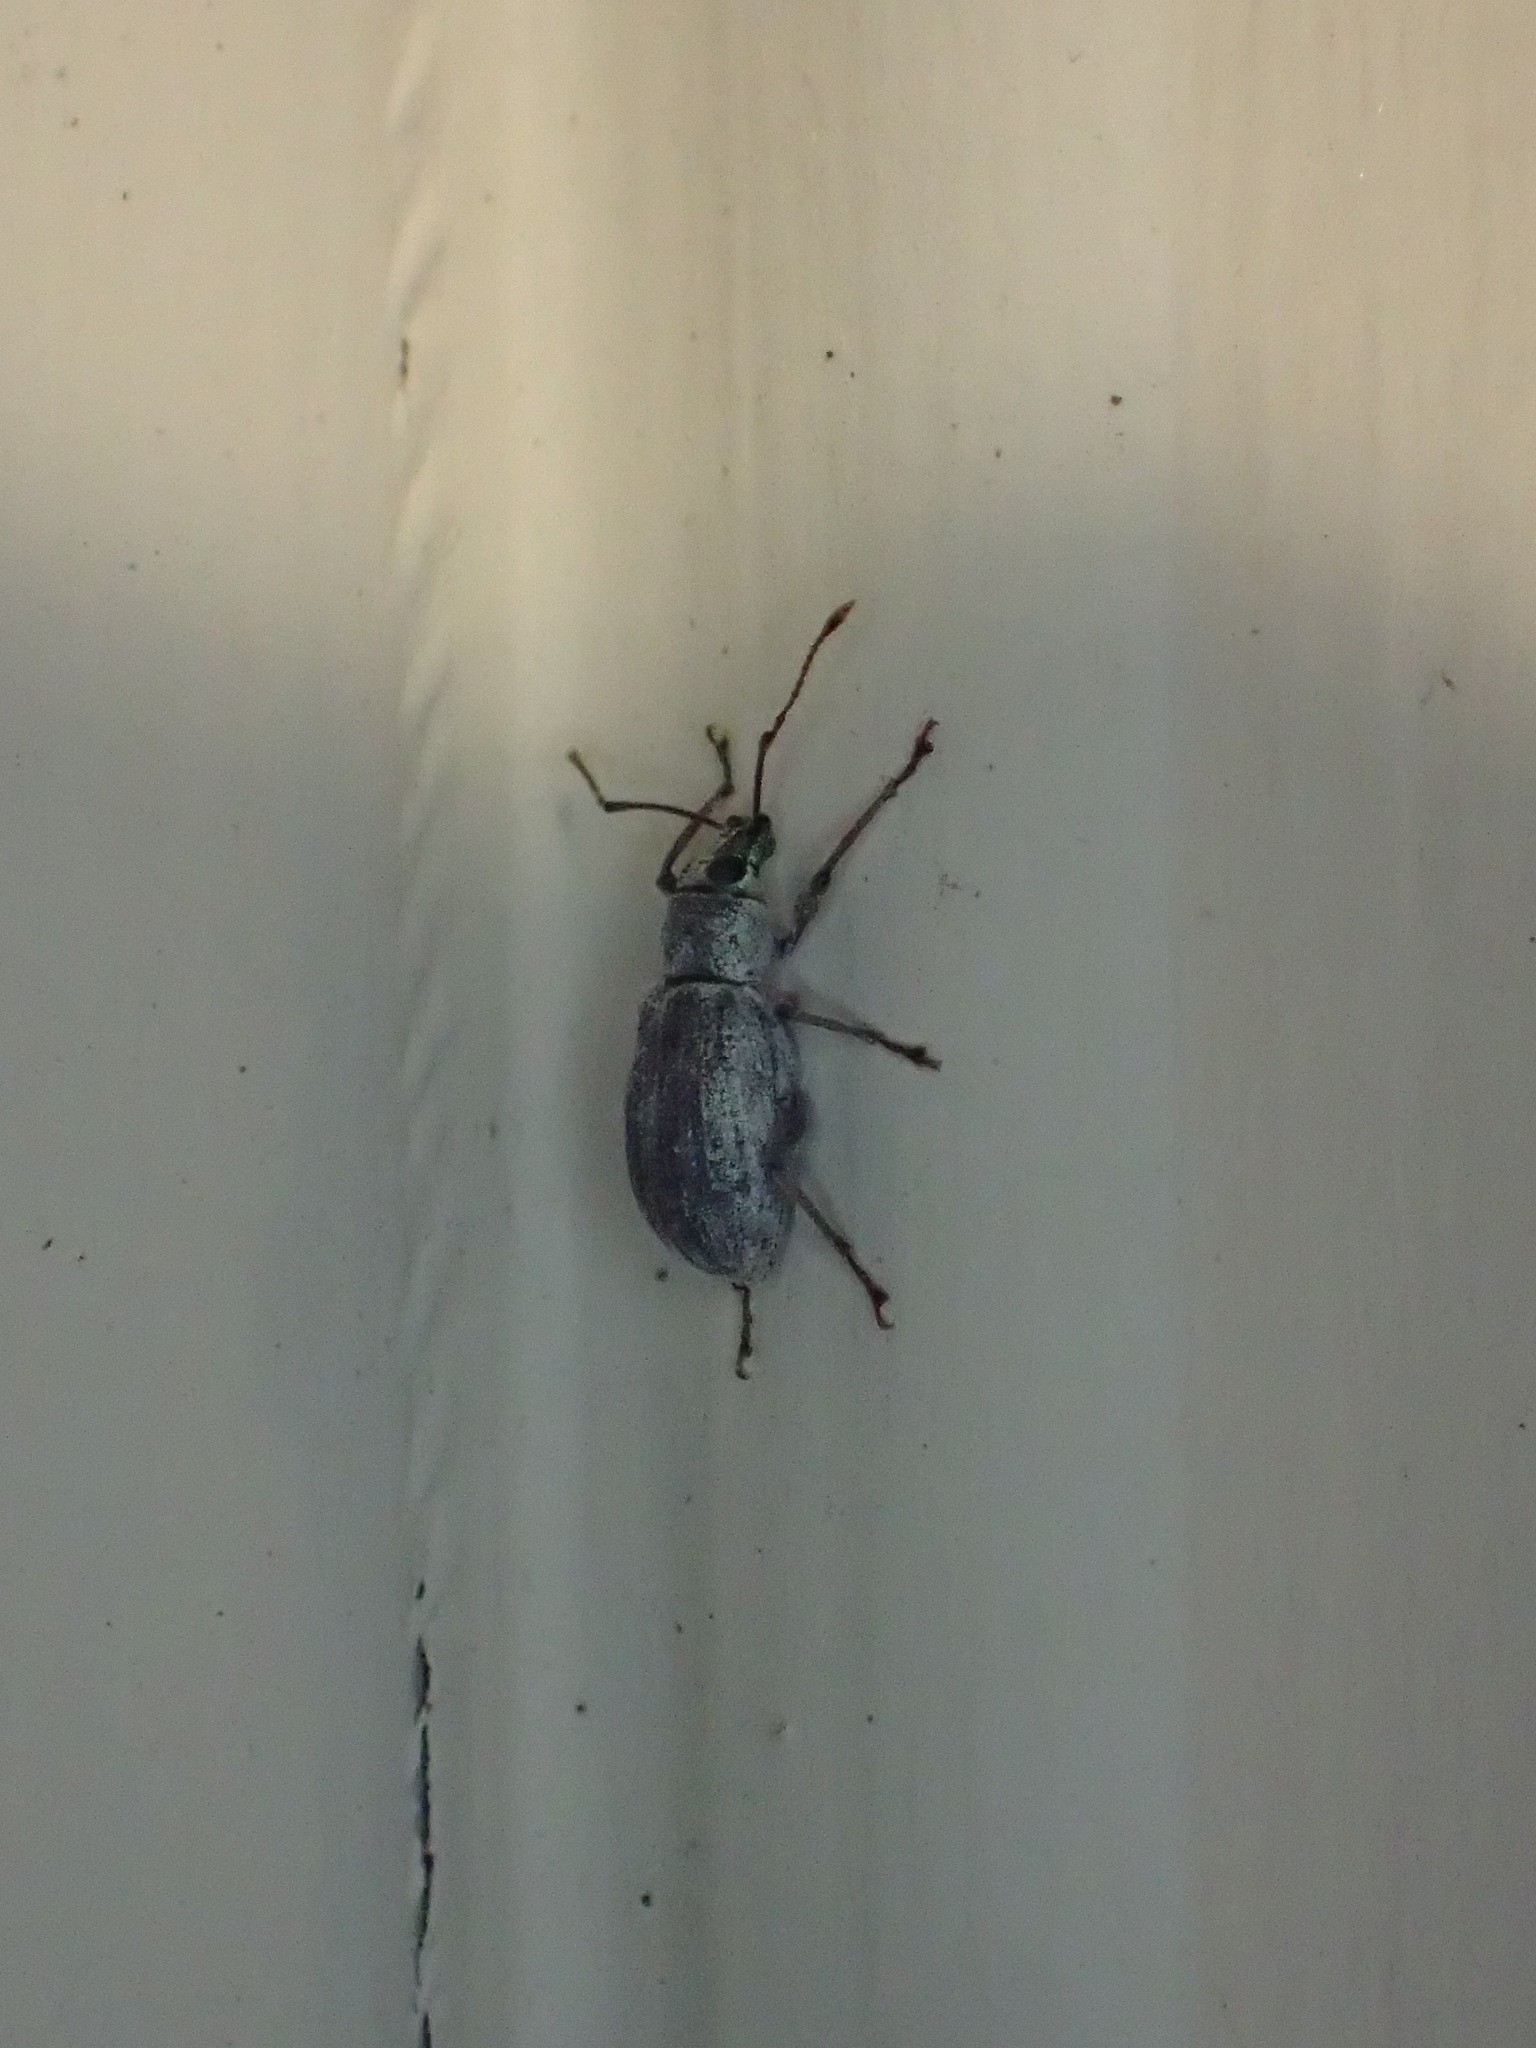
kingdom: Animalia
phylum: Arthropoda
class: Insecta
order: Coleoptera
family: Curculionidae
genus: Cyrtepistomus
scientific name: Cyrtepistomus castaneus
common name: Weevil
